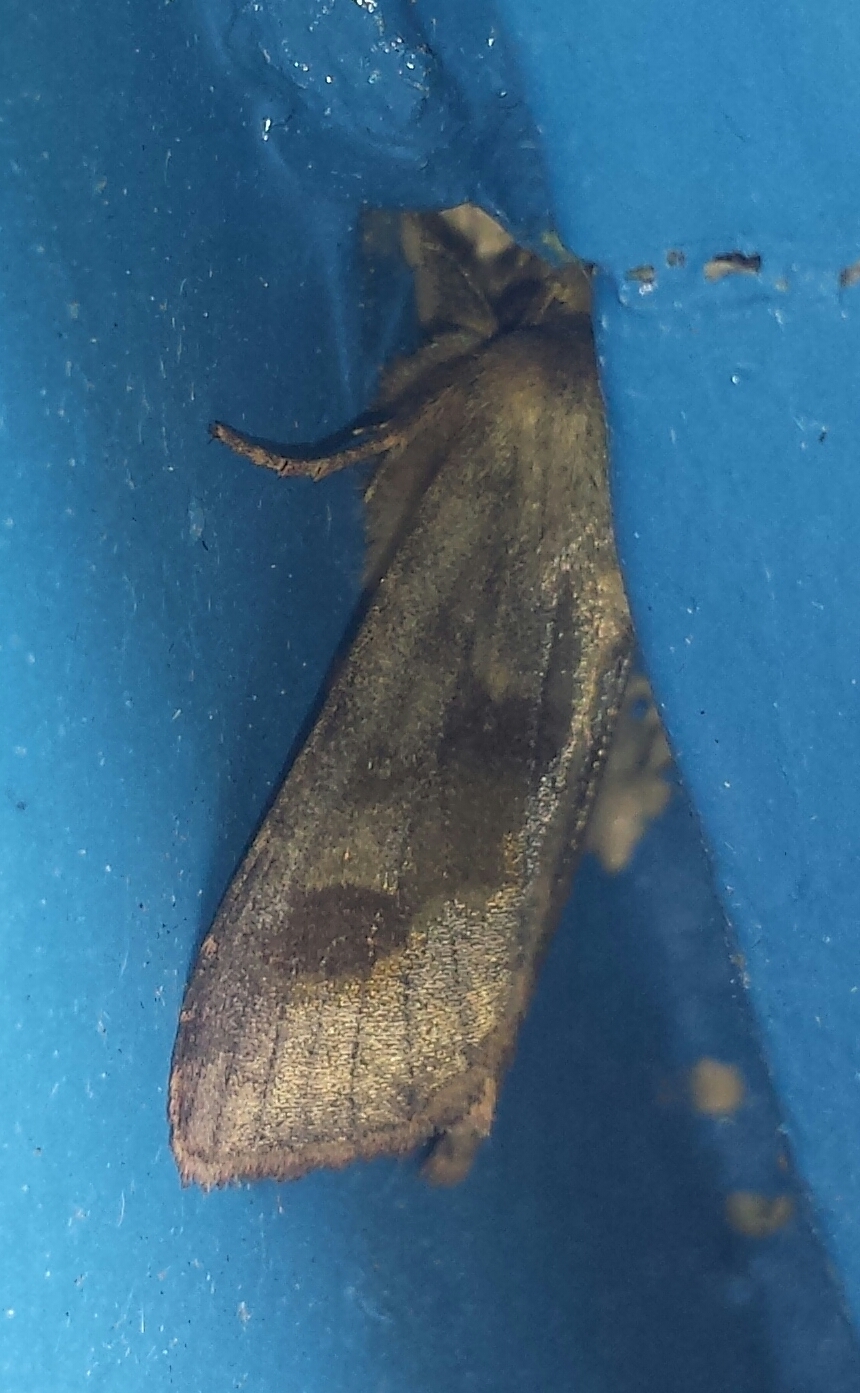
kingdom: Animalia
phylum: Arthropoda
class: Insecta
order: Lepidoptera
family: Noctuidae
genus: Nephelodes
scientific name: Nephelodes minians
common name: Bronzed cutworm
